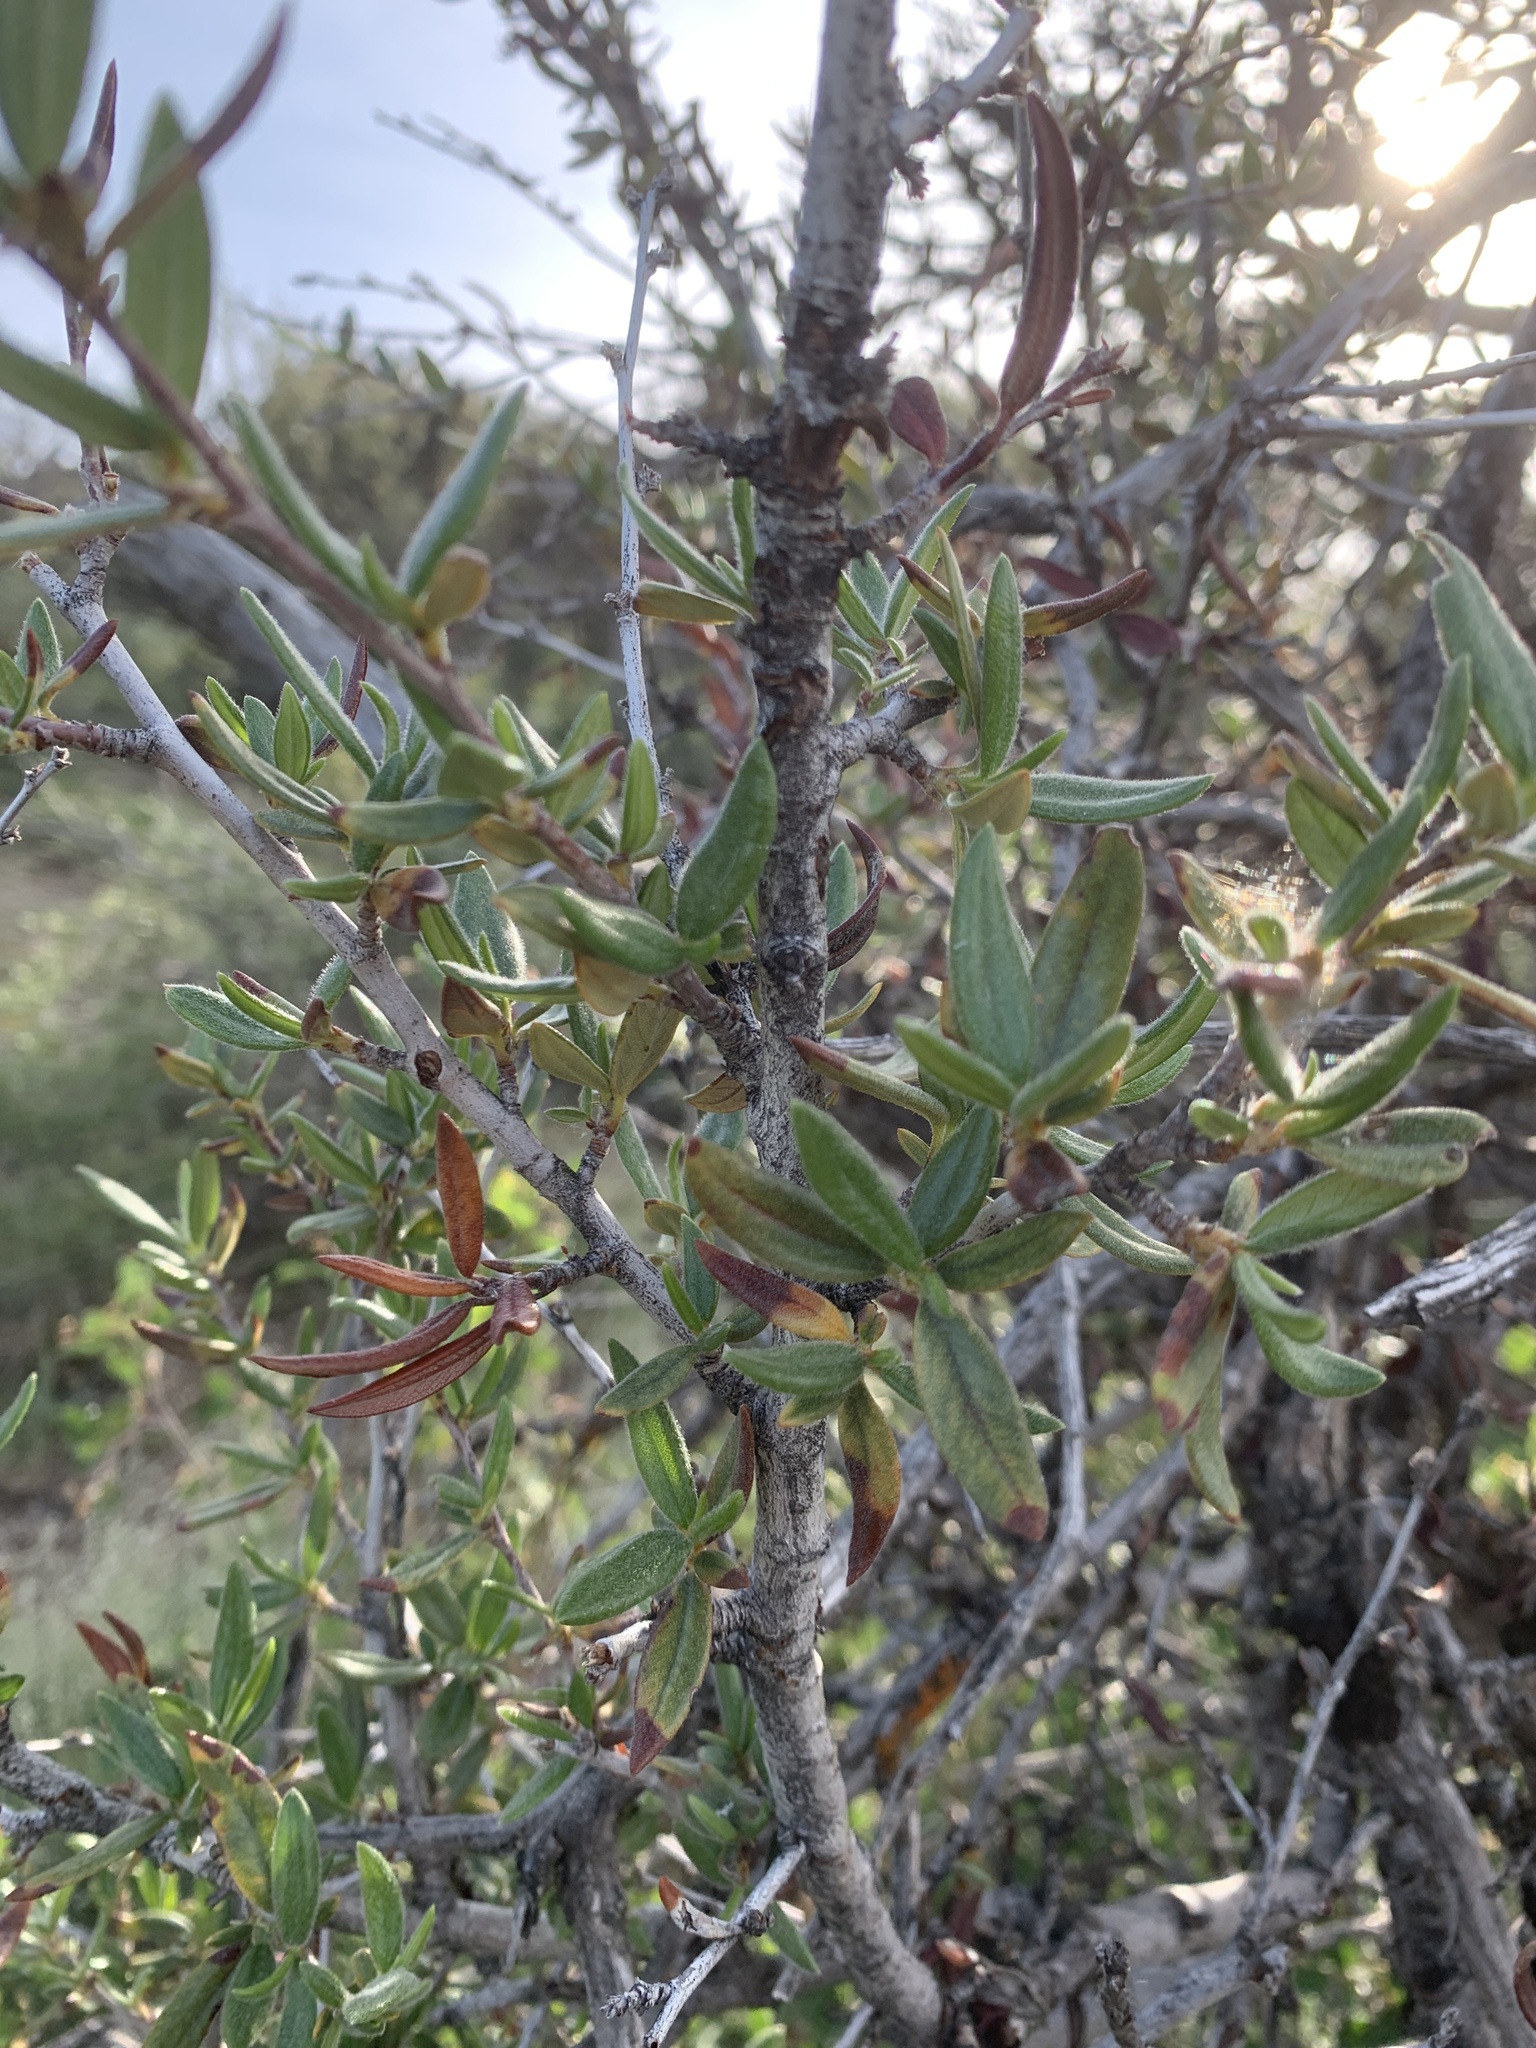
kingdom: Plantae
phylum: Tracheophyta
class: Magnoliopsida
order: Rosales
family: Rosaceae
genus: Cercocarpus
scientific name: Cercocarpus ledifolius
